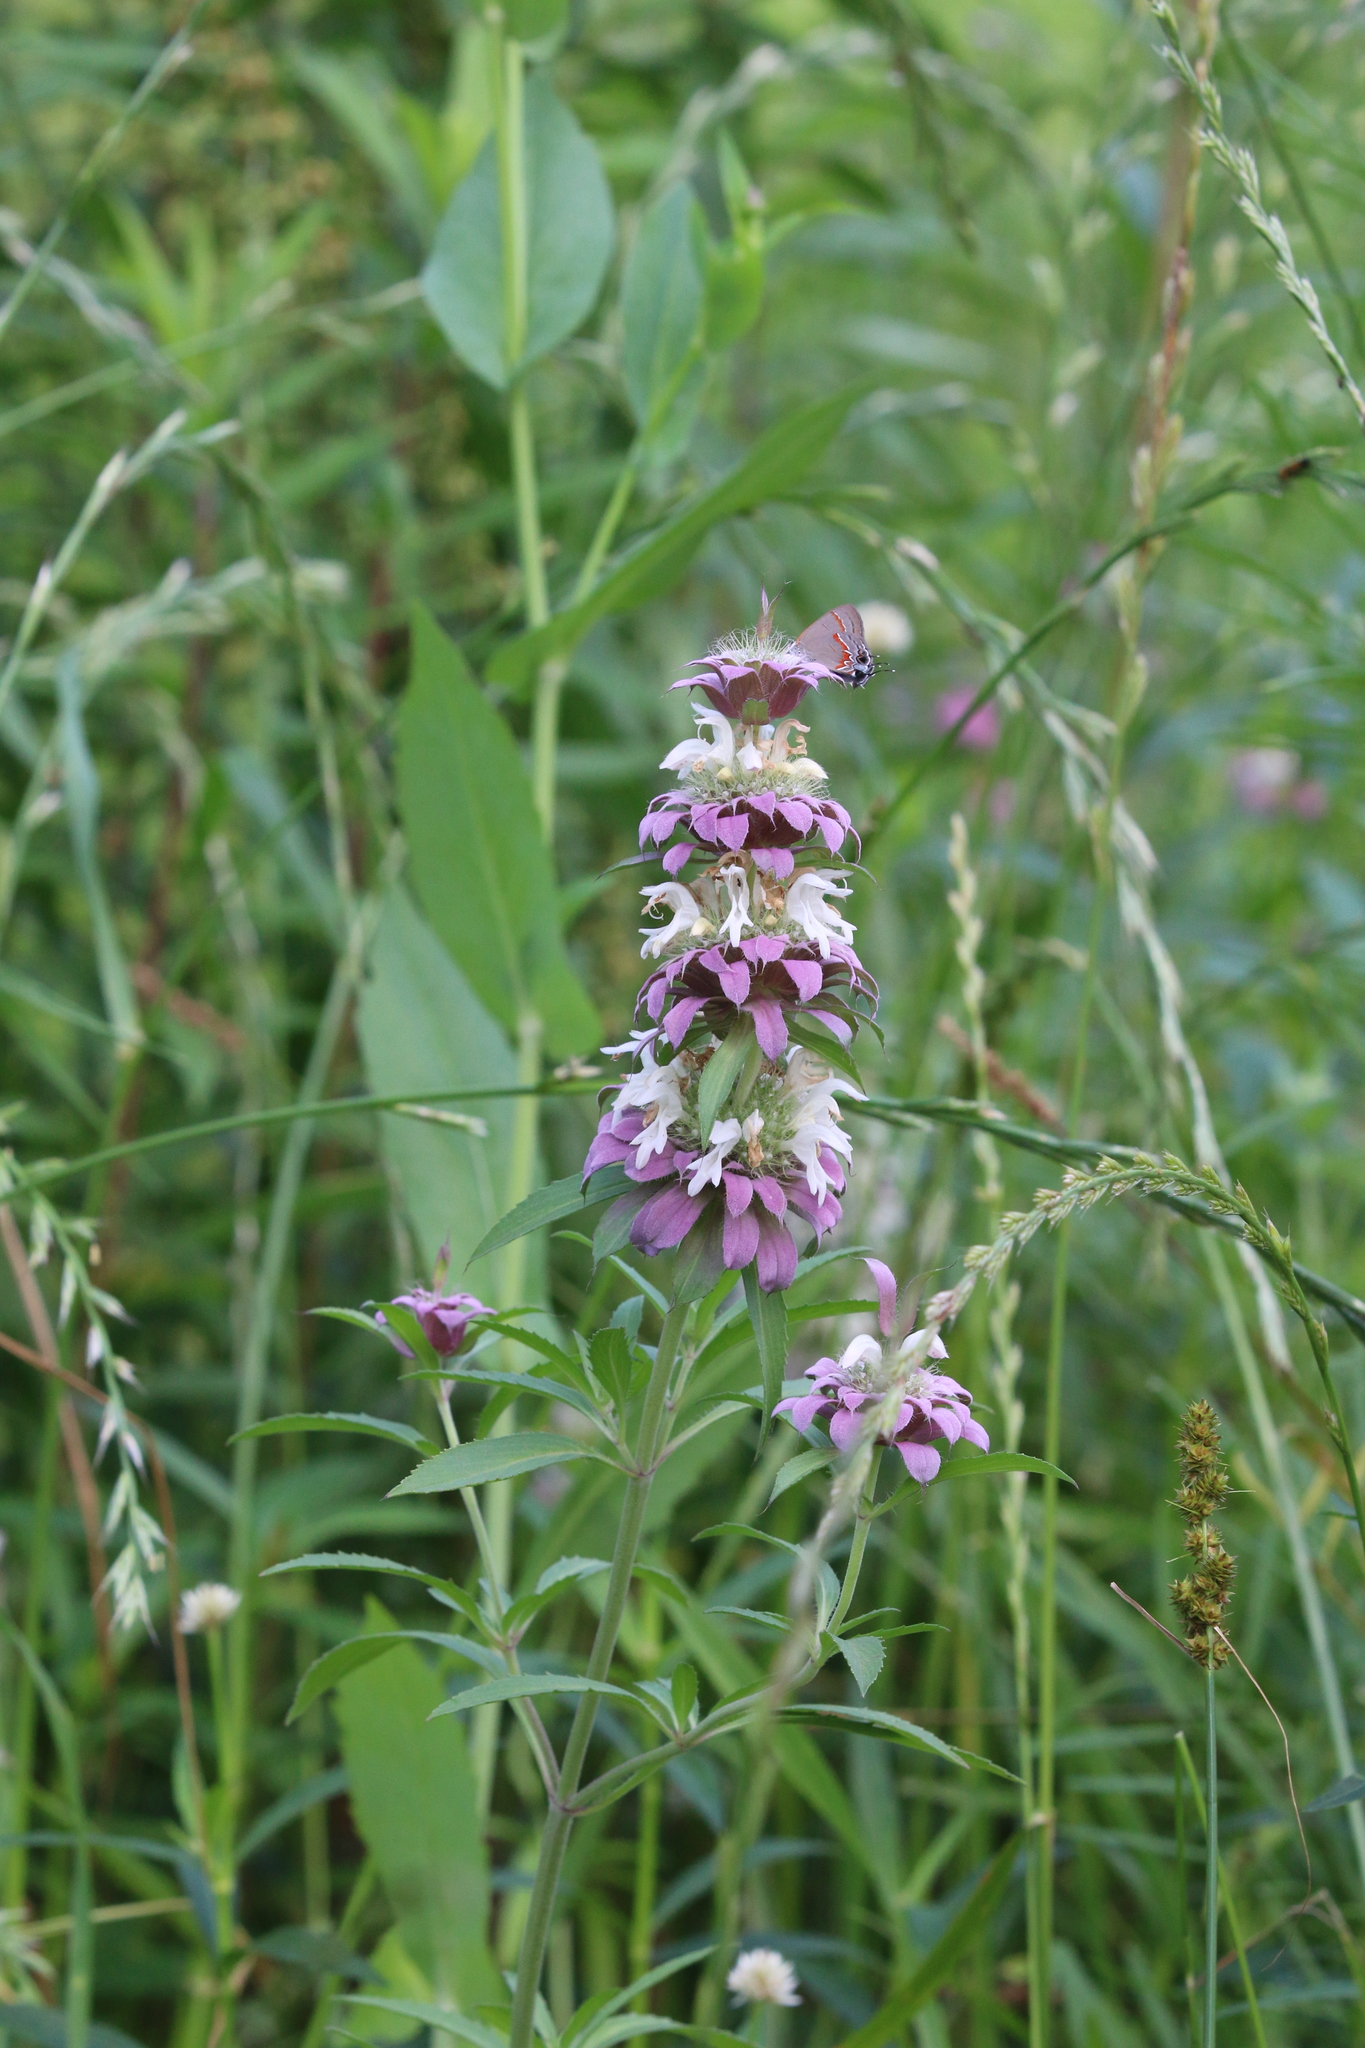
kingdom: Plantae
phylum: Tracheophyta
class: Magnoliopsida
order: Lamiales
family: Lamiaceae
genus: Monarda
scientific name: Monarda citriodora
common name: Lemon beebalm
